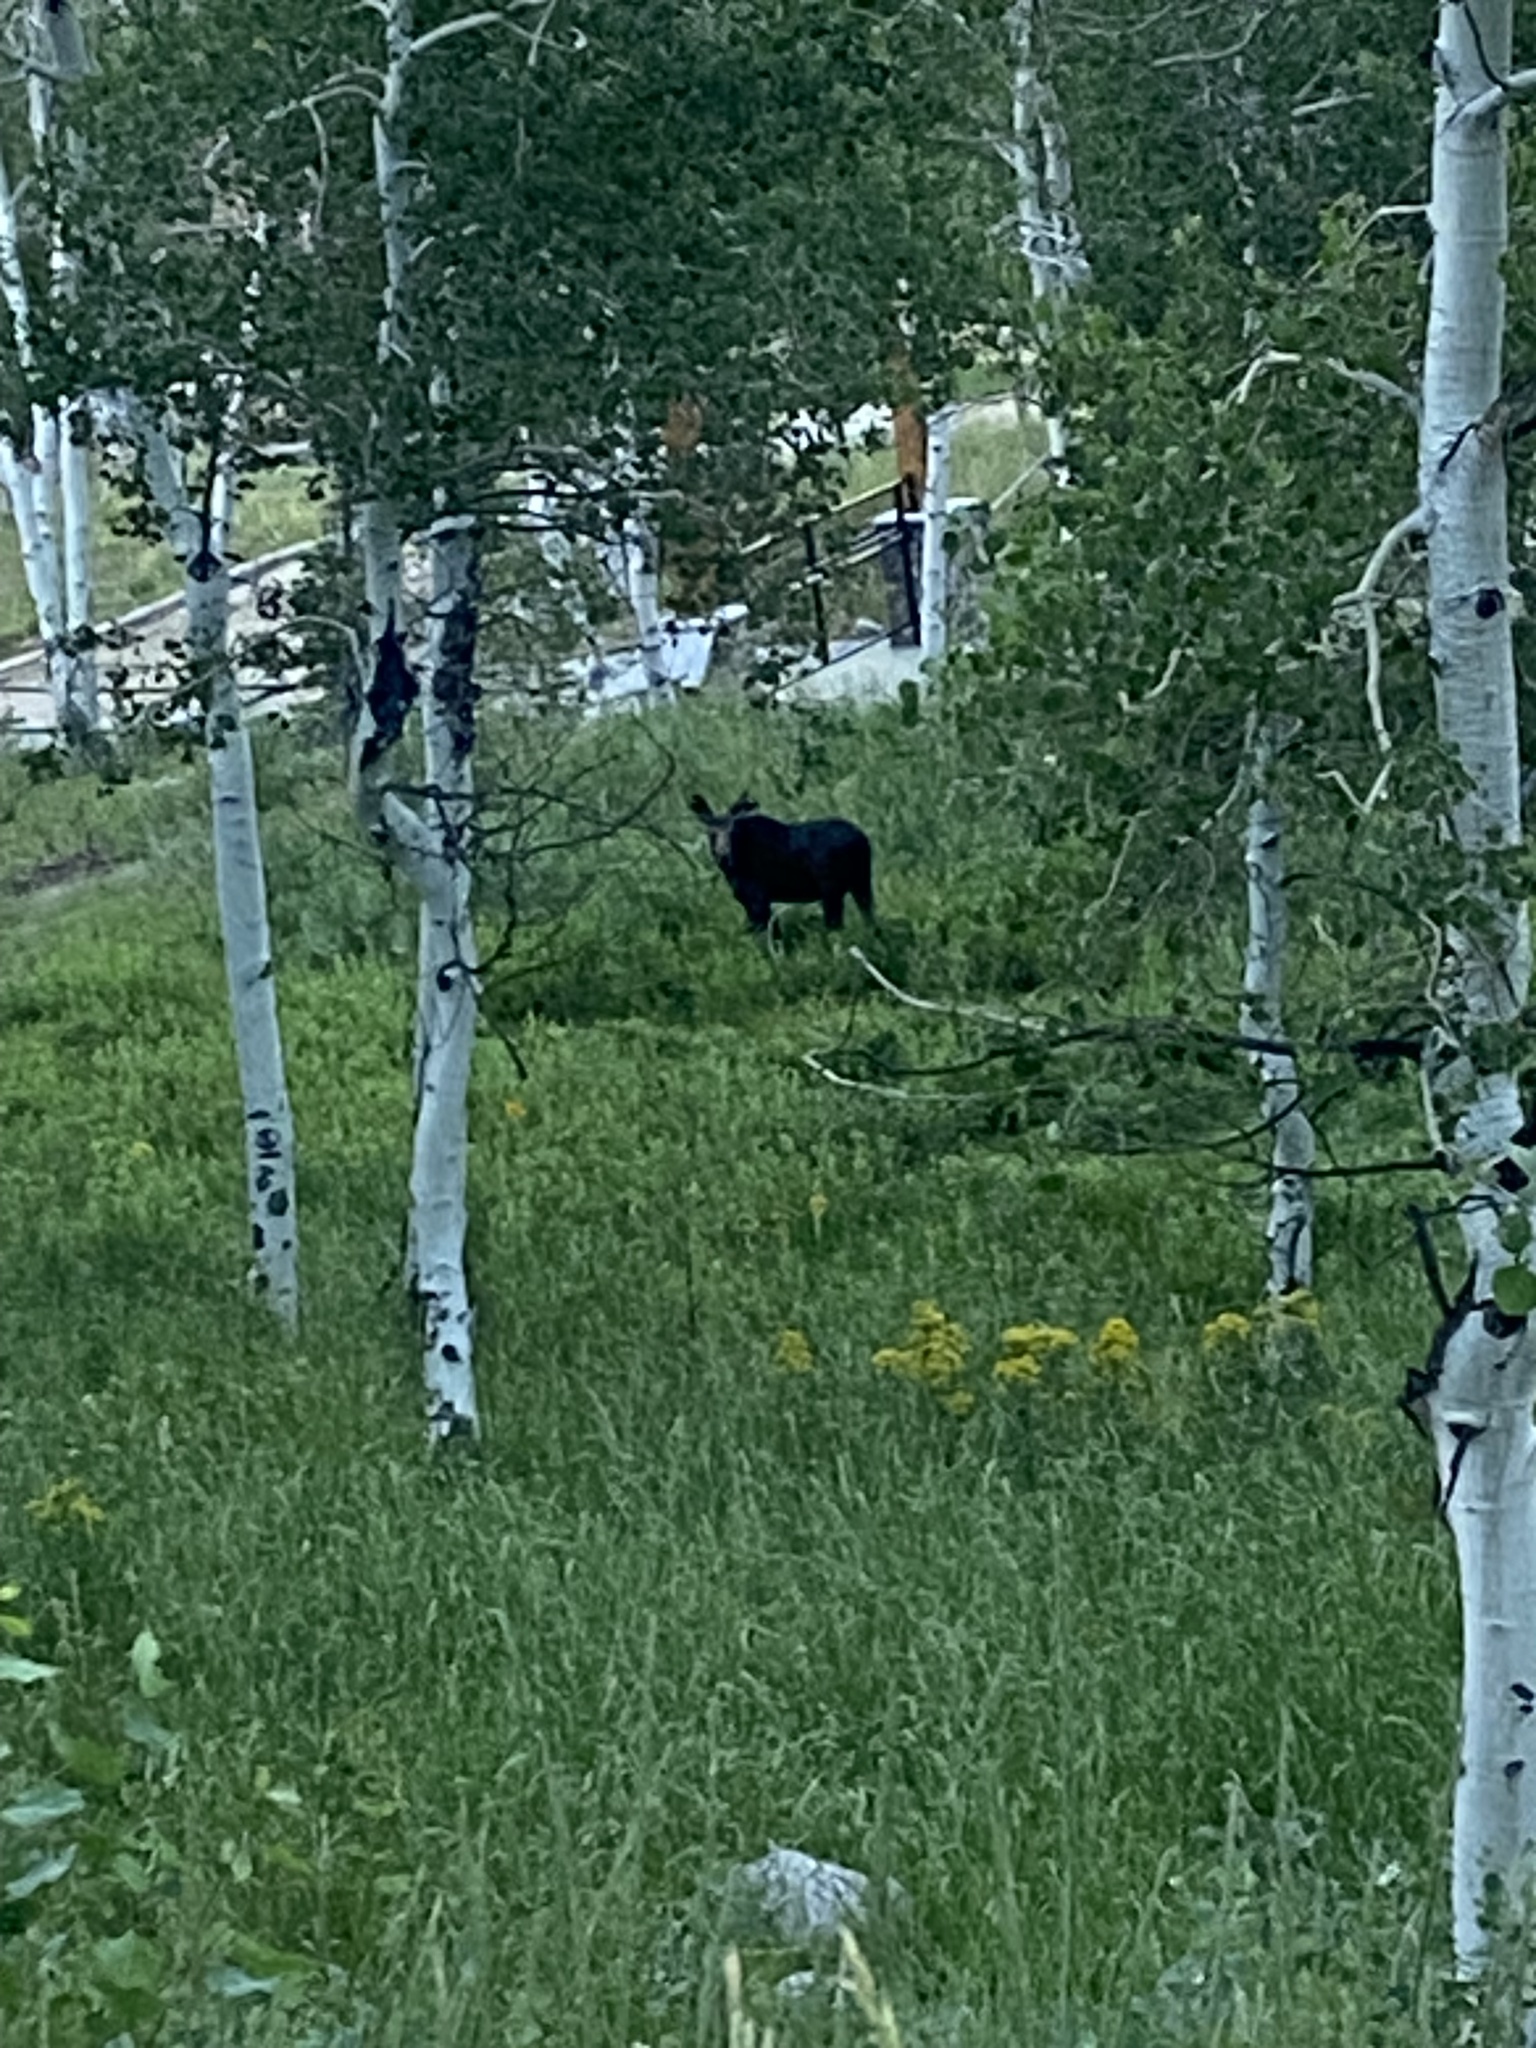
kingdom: Animalia
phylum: Chordata
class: Mammalia
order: Artiodactyla
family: Cervidae
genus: Alces
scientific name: Alces alces
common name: Moose
